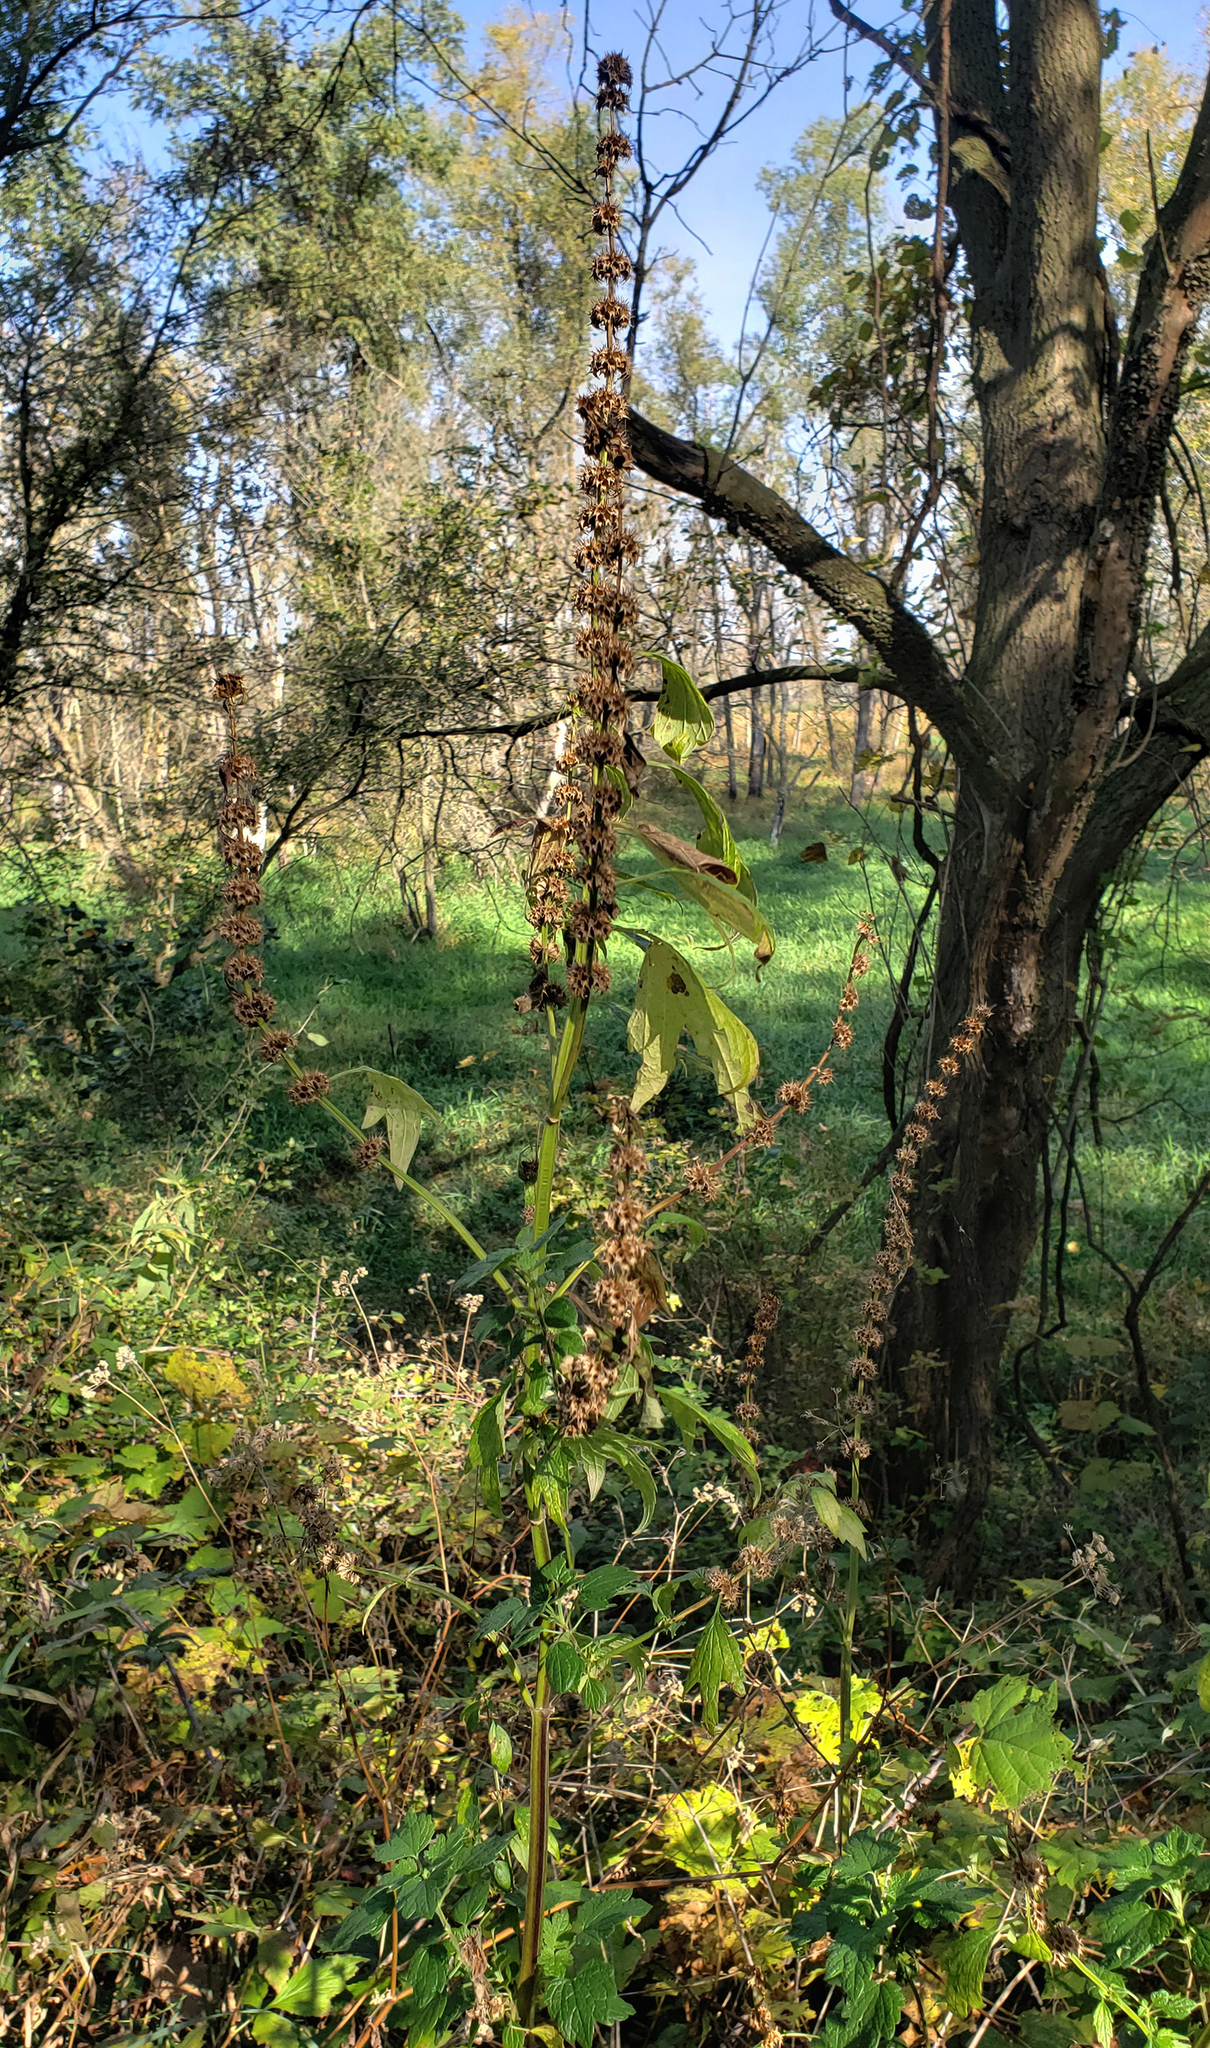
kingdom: Plantae
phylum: Tracheophyta
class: Magnoliopsida
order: Lamiales
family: Lamiaceae
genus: Leonurus
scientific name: Leonurus cardiaca
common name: Motherwort
